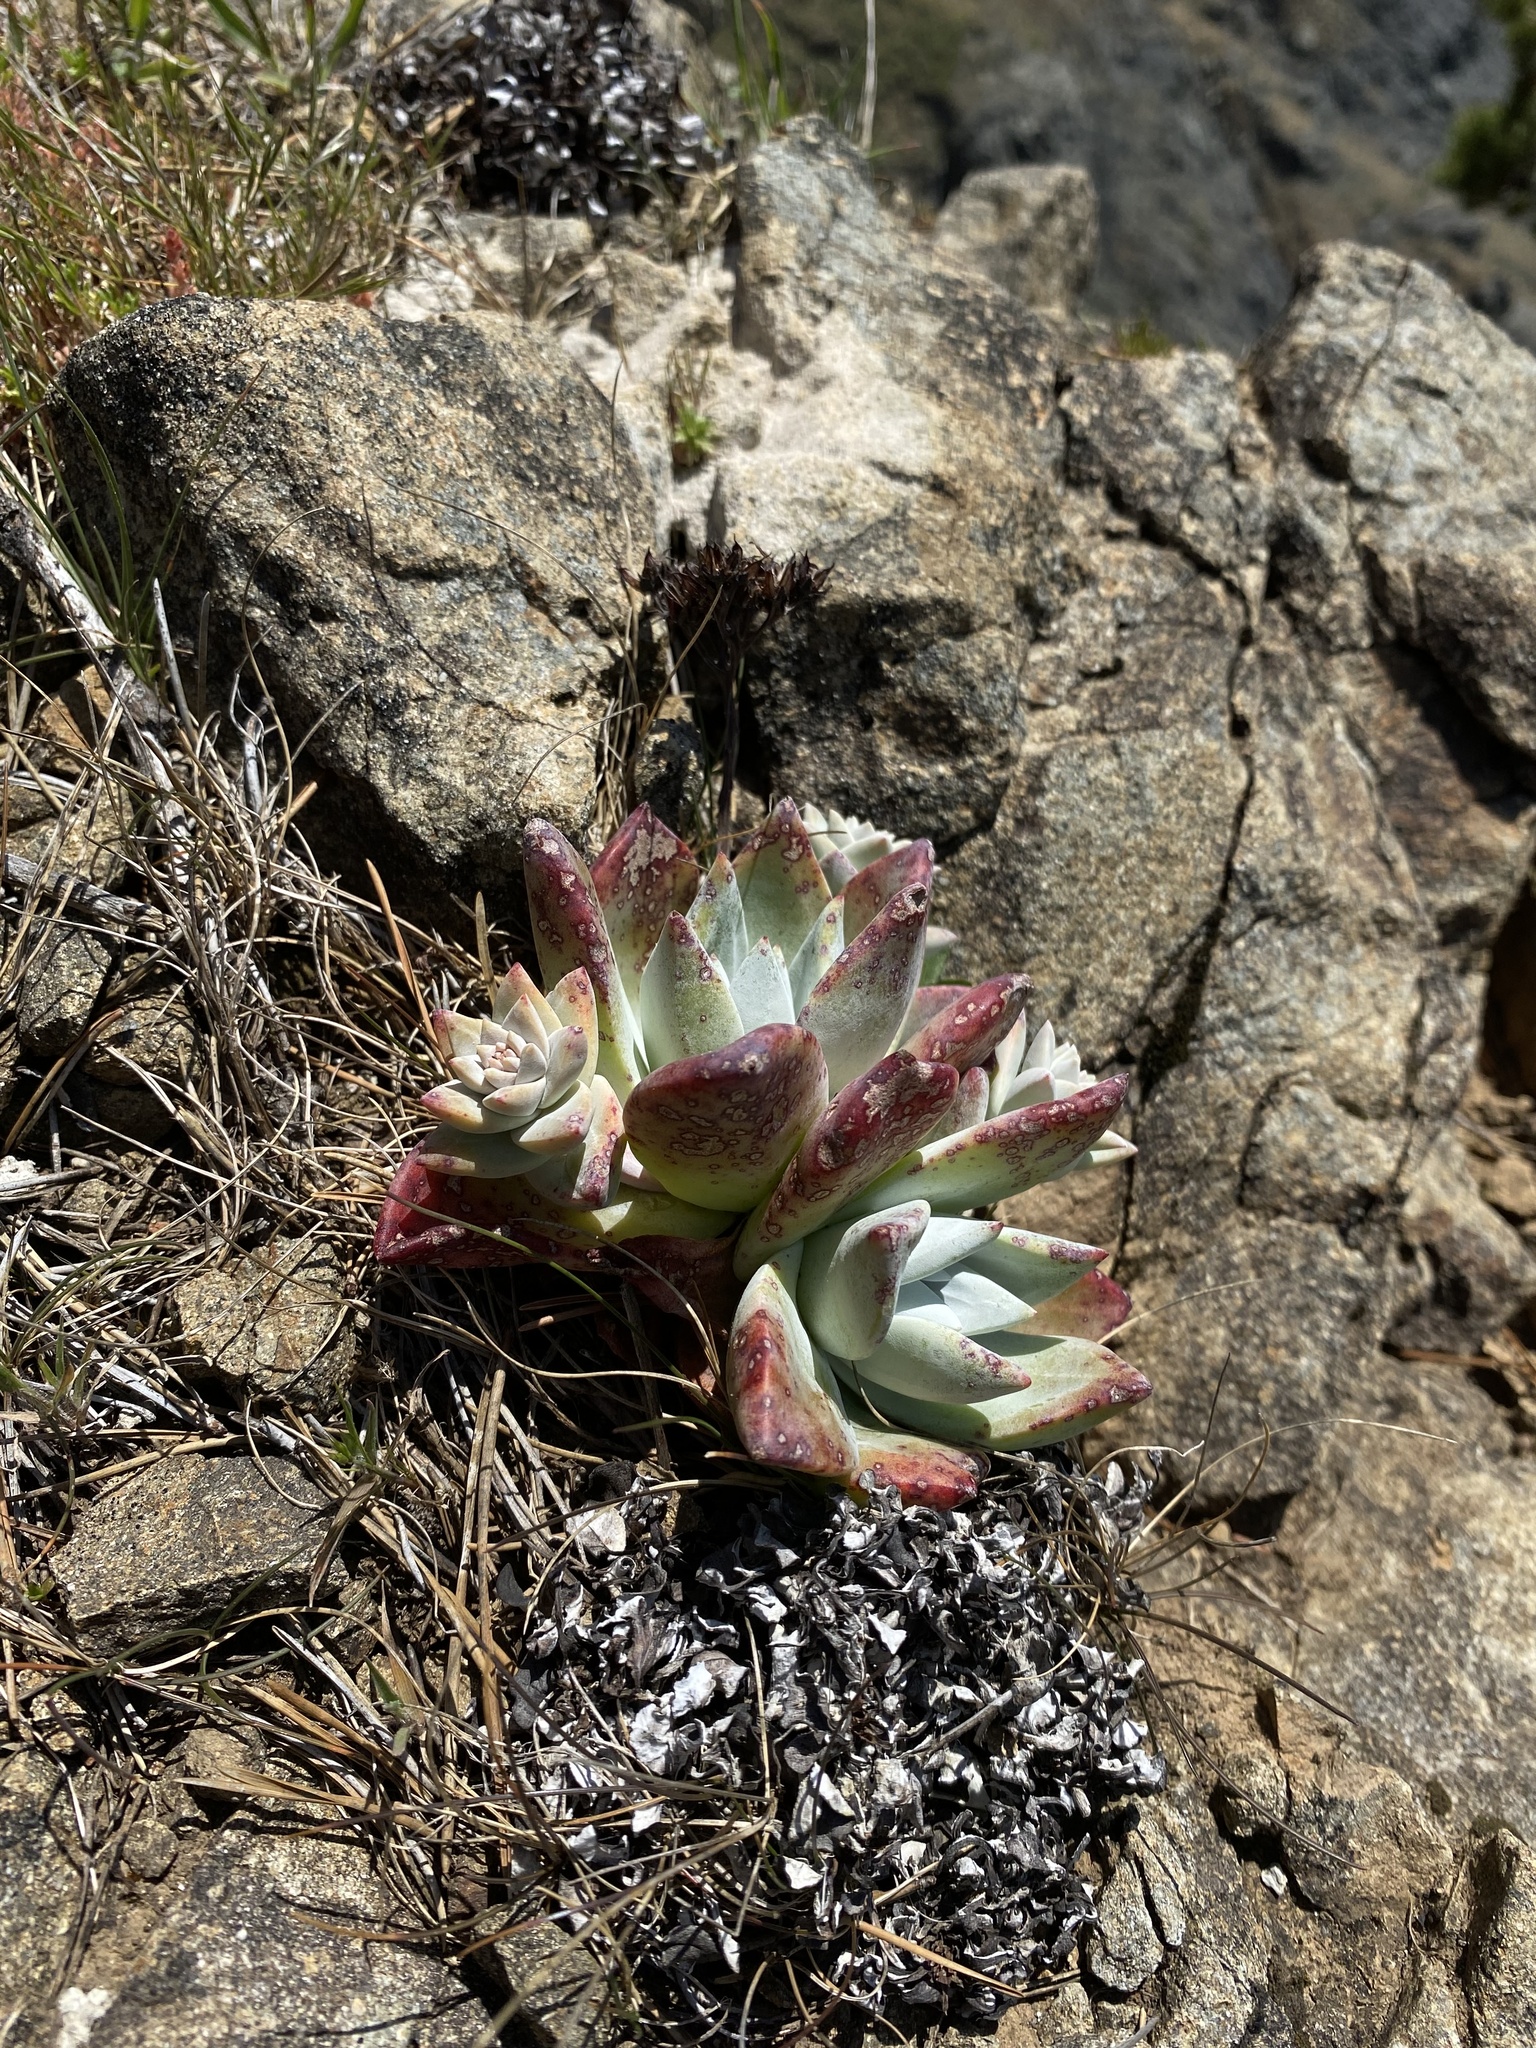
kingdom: Plantae
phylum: Tracheophyta
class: Magnoliopsida
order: Saxifragales
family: Crassulaceae
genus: Dudleya
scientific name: Dudleya farinosa
